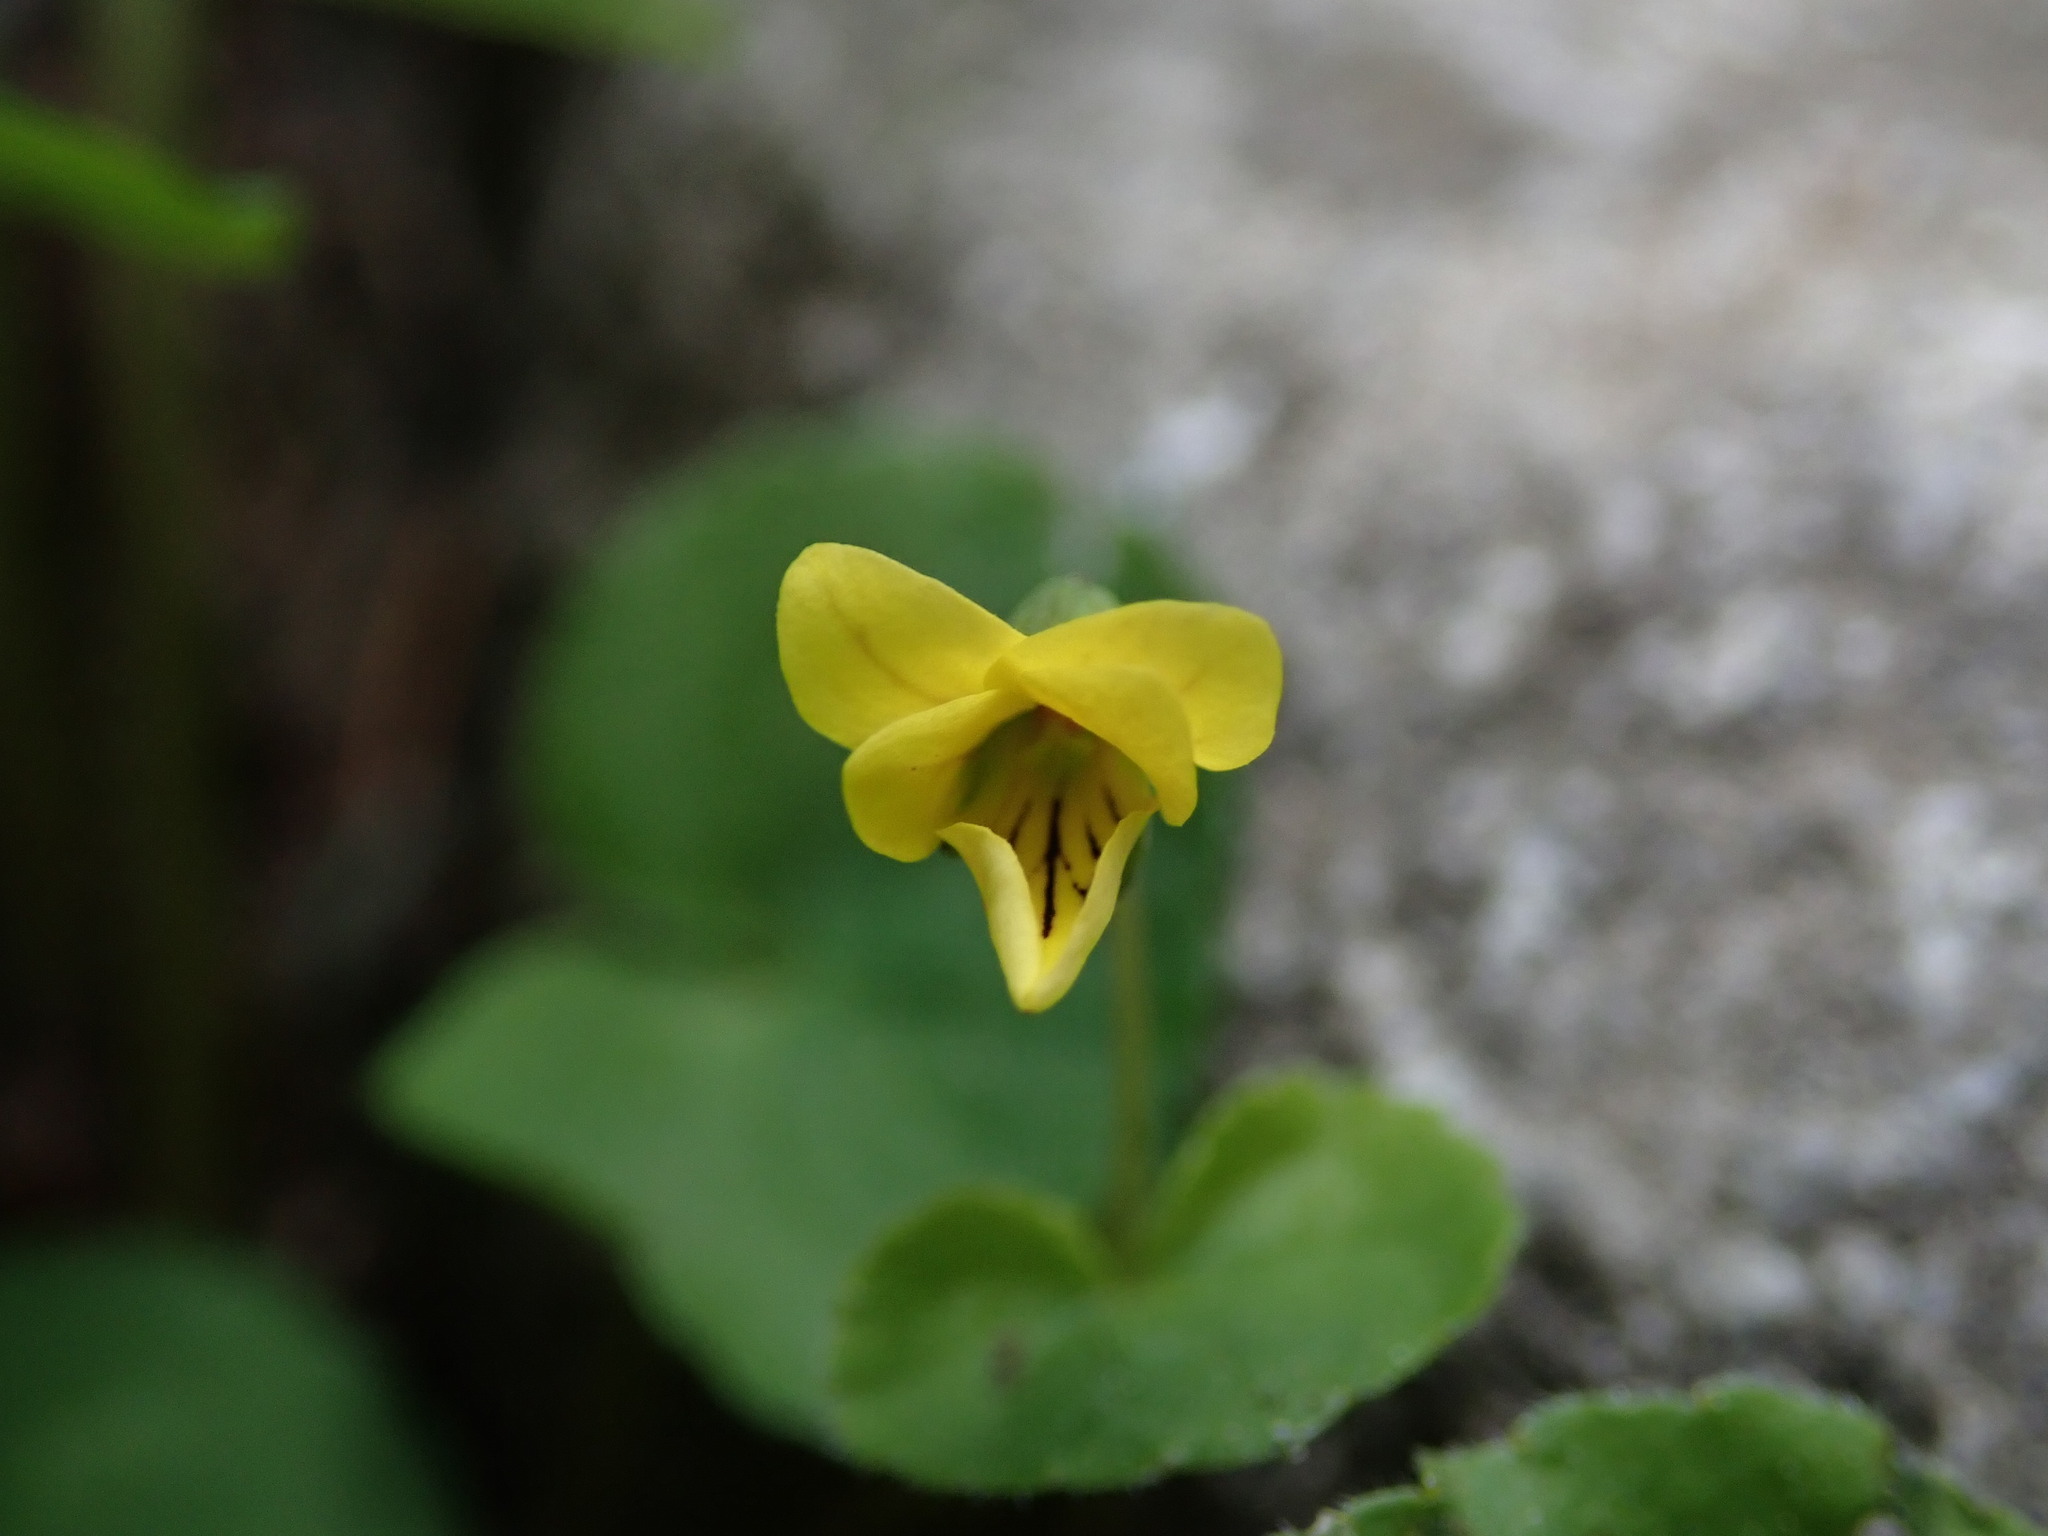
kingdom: Plantae
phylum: Tracheophyta
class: Magnoliopsida
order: Malpighiales
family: Violaceae
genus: Viola
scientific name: Viola biflora
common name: Alpine yellow violet
